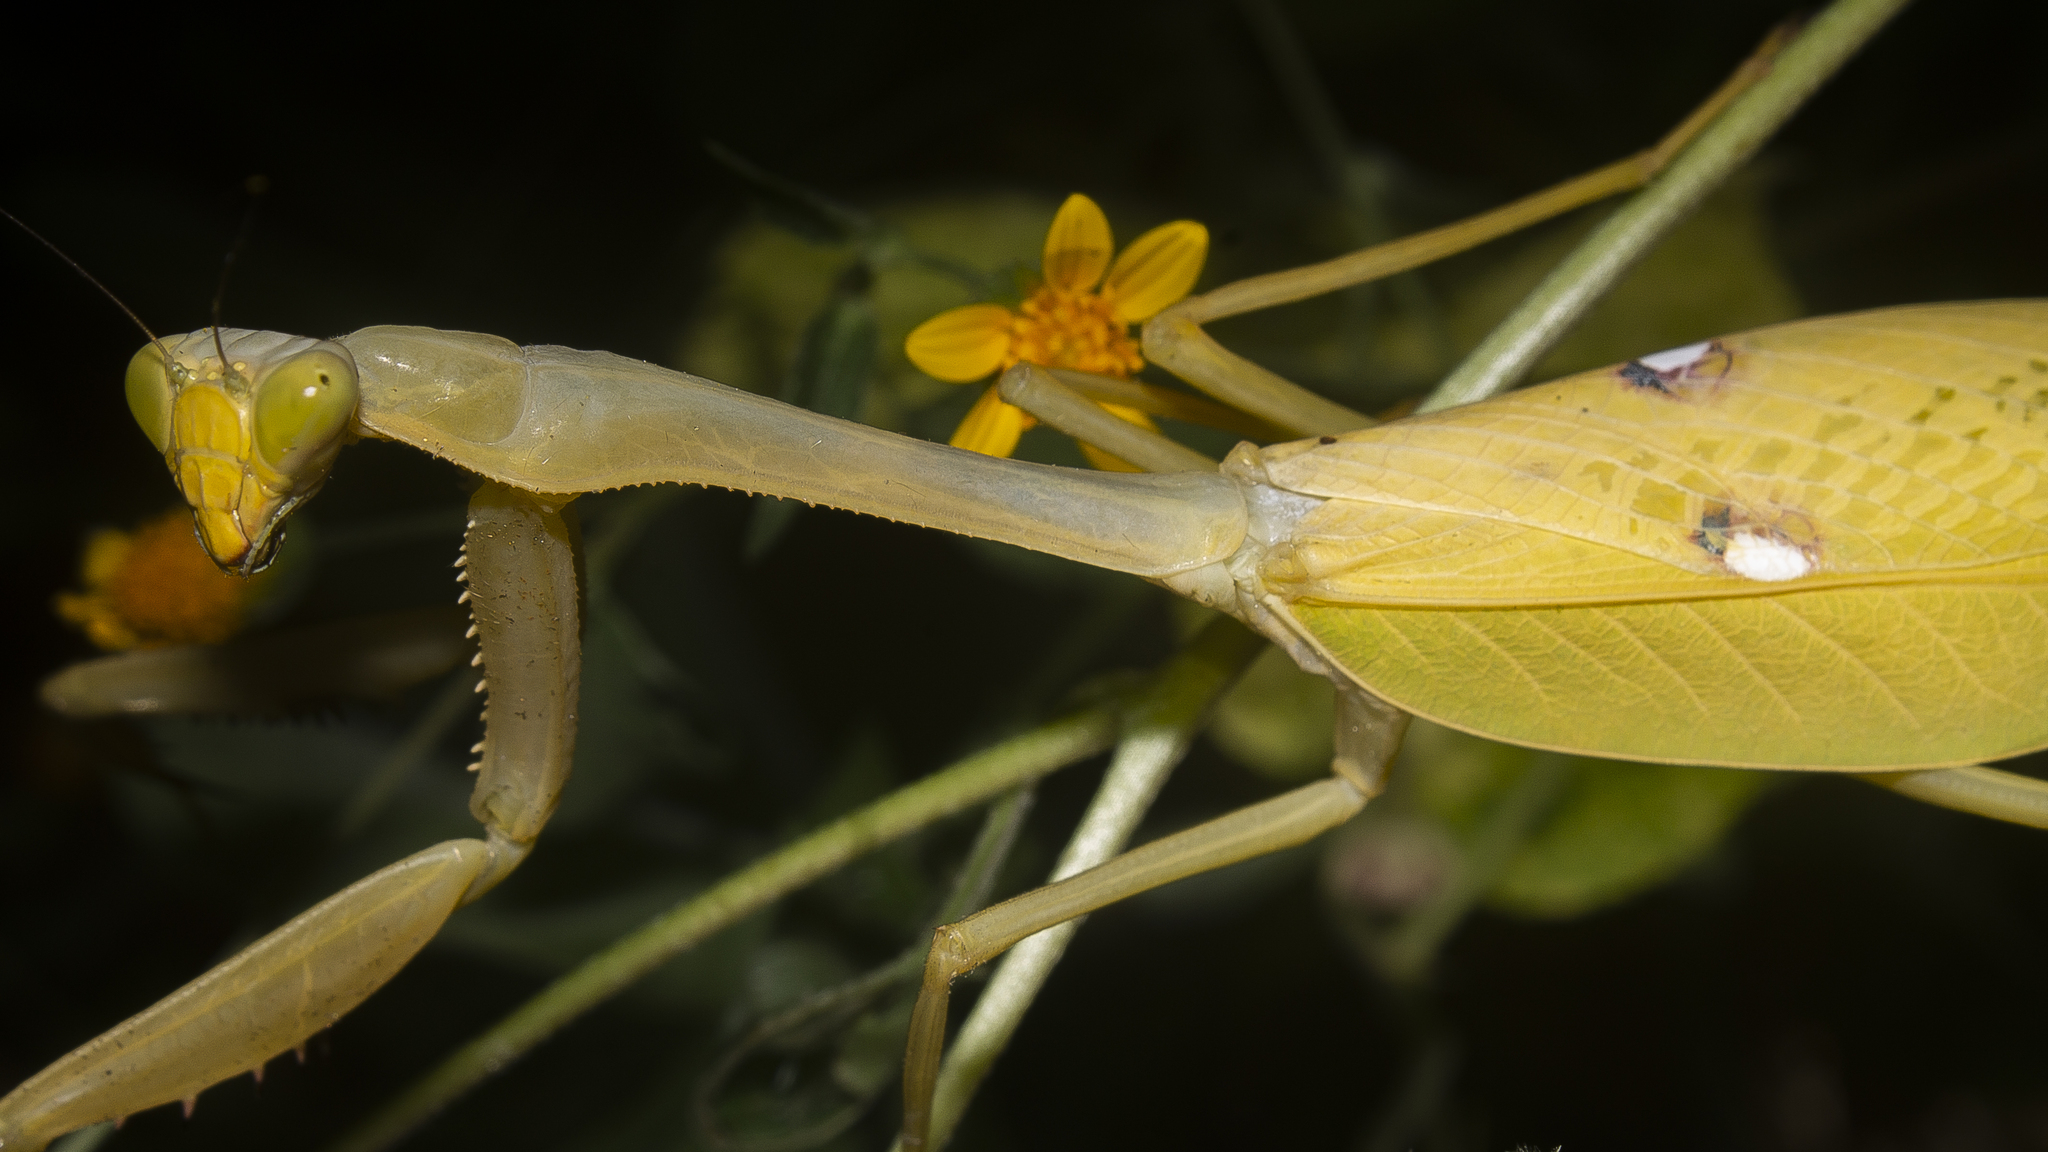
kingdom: Animalia
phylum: Arthropoda
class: Insecta
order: Mantodea
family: Mantidae
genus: Stagmatoptera
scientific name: Stagmatoptera septentrionalis
